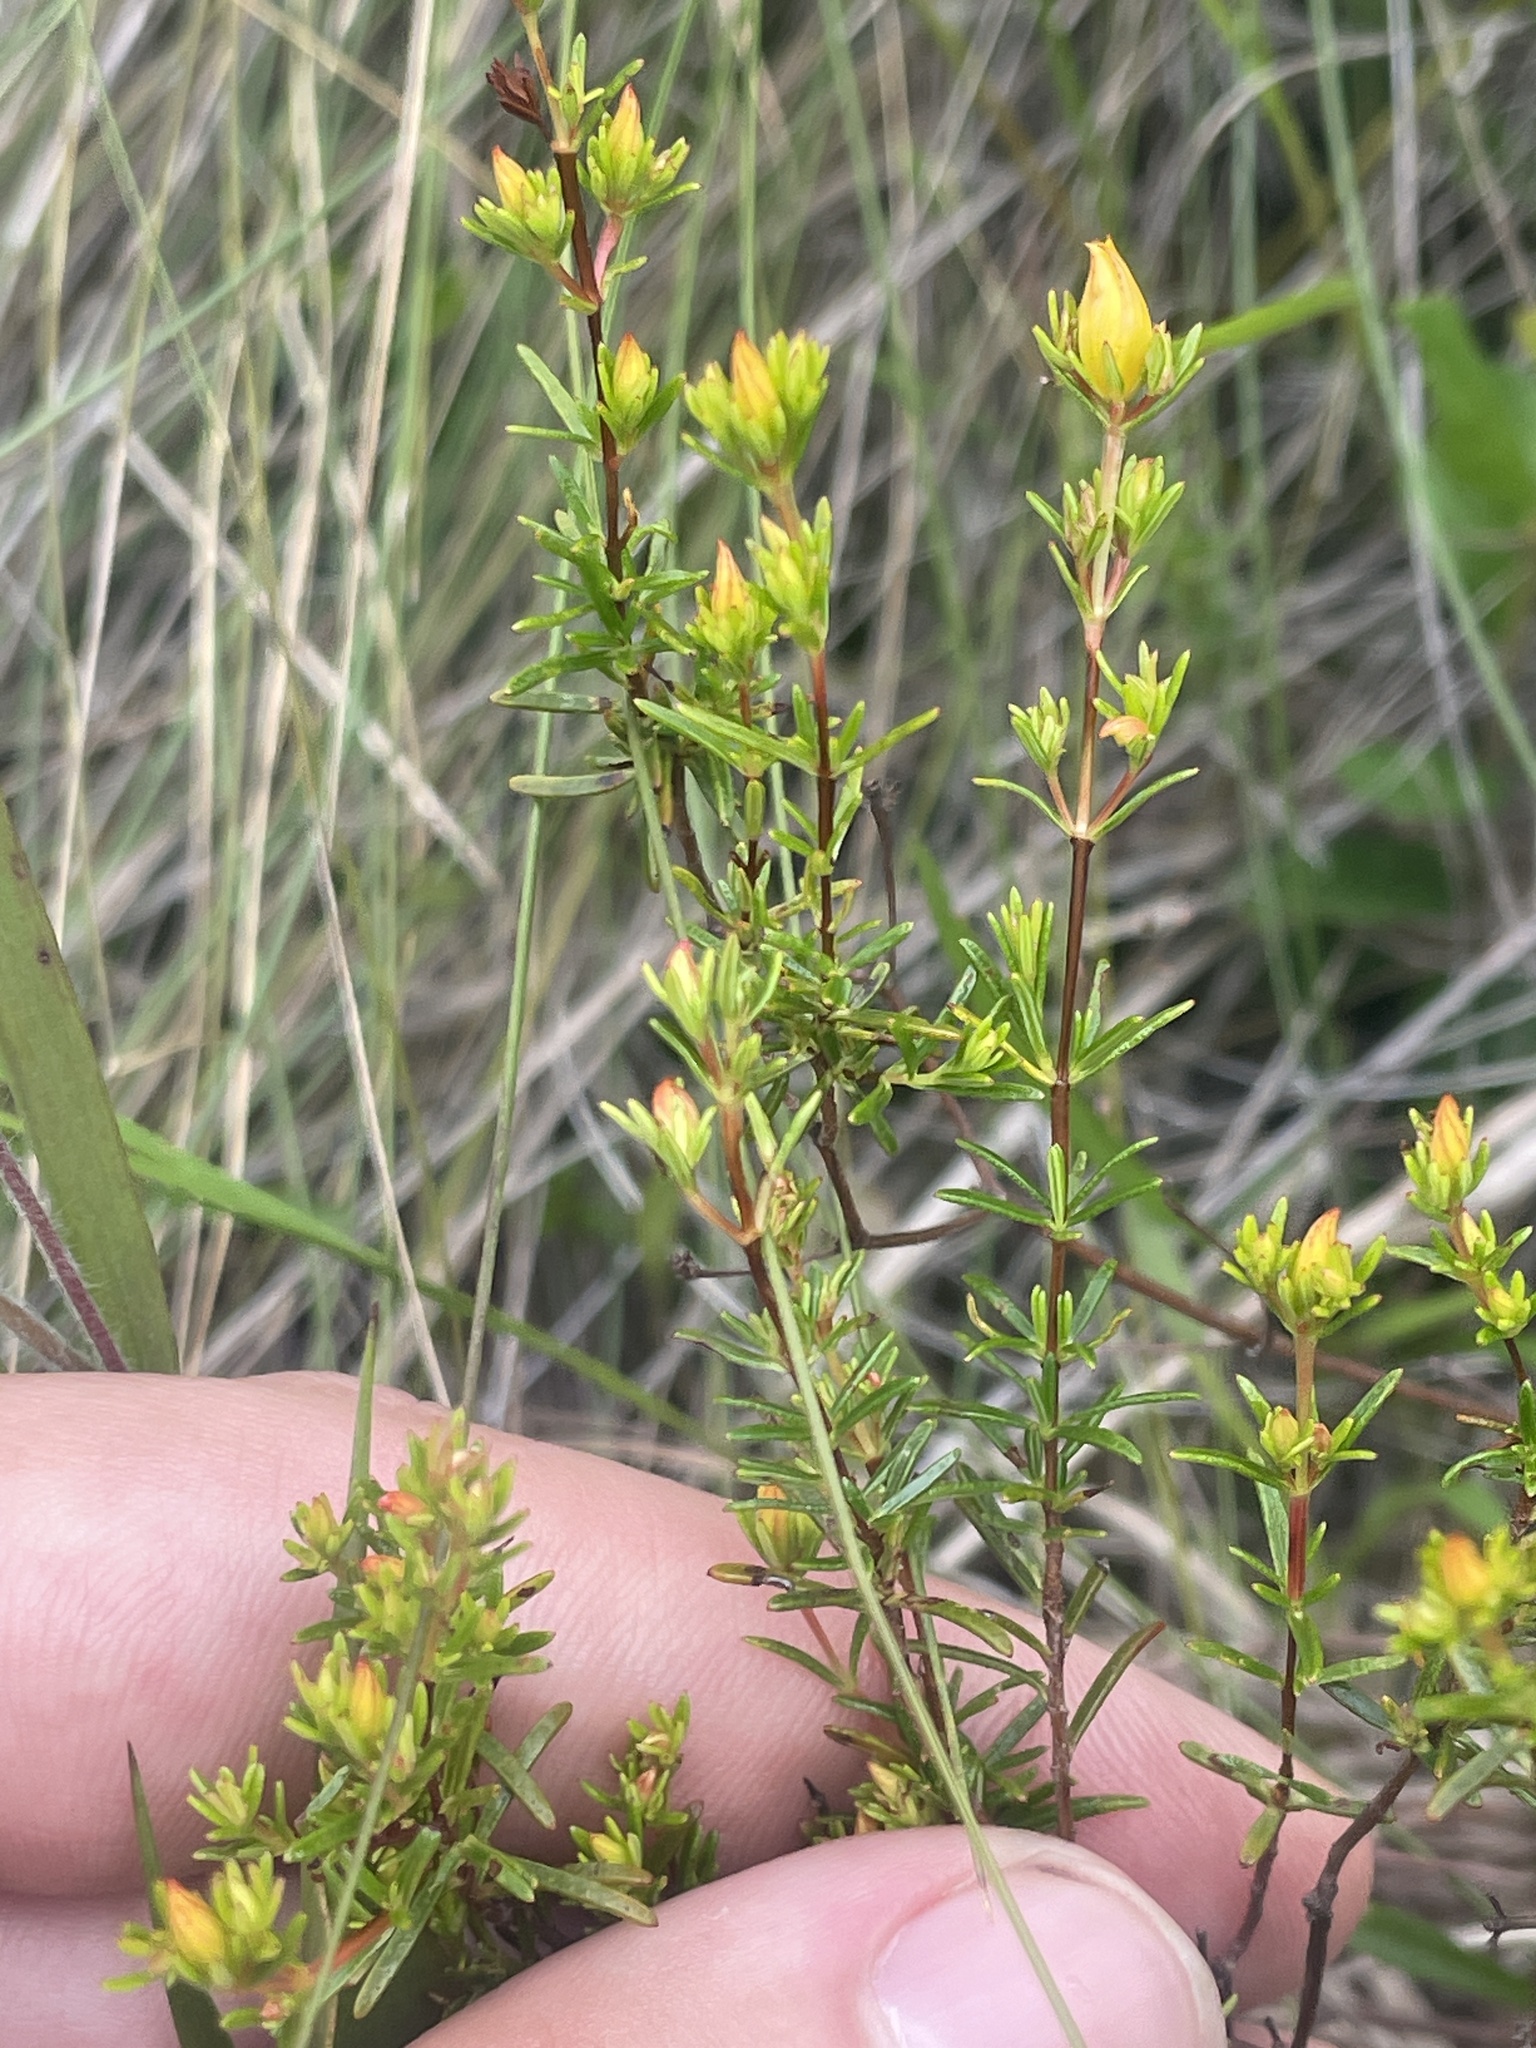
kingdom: Plantae
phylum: Tracheophyta
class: Magnoliopsida
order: Malpighiales
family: Hypericaceae
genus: Hypericum
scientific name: Hypericum brachyphyllum
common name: Coastal plain st. john's-wort
